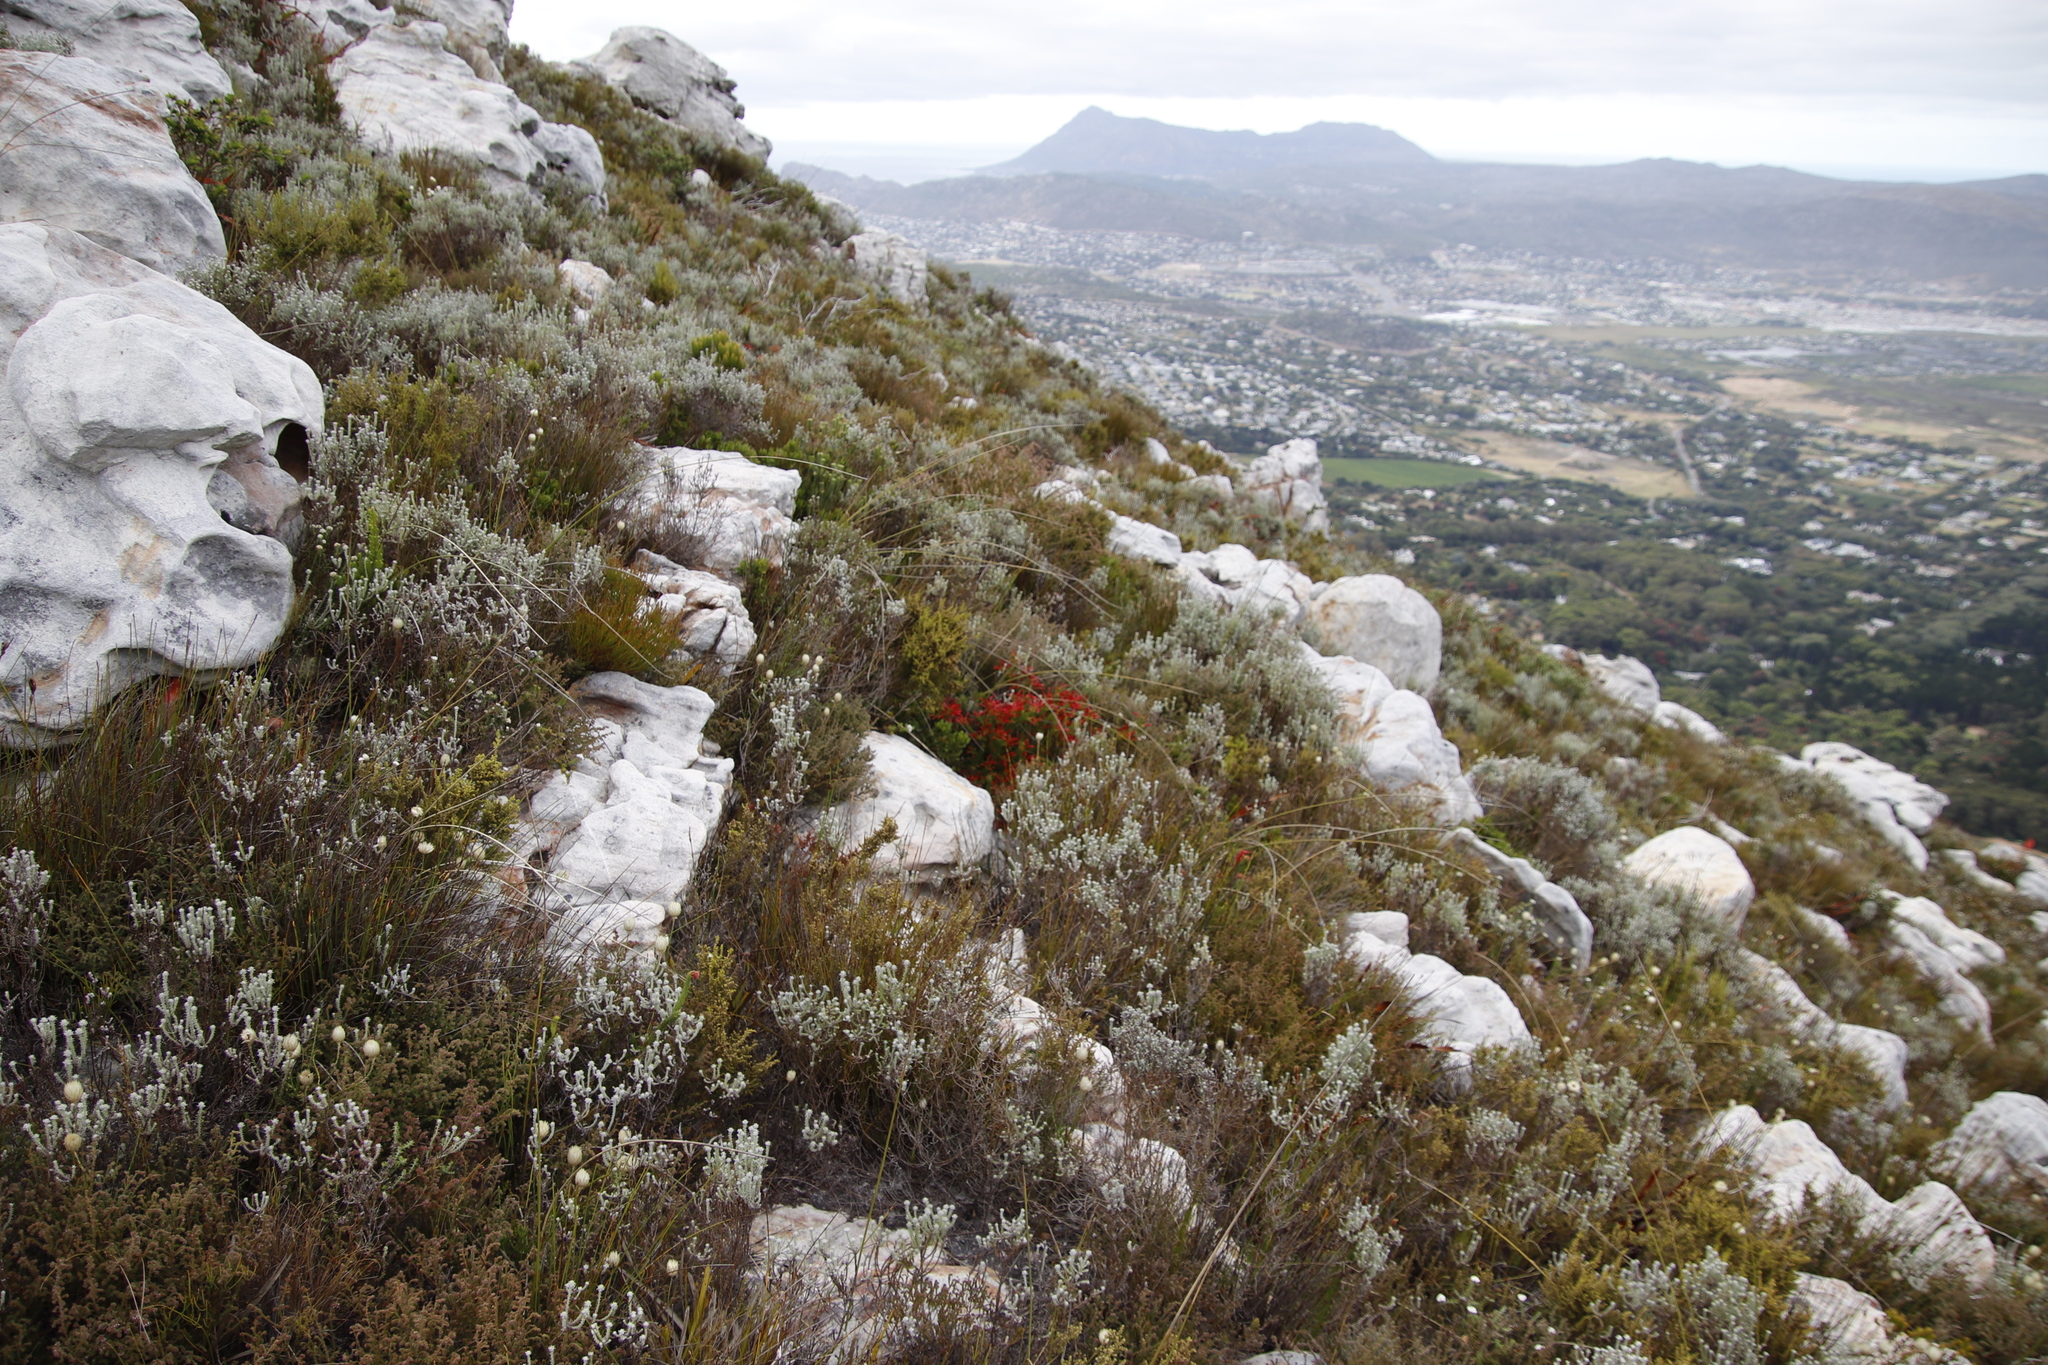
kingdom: Plantae
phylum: Tracheophyta
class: Magnoliopsida
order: Ericales
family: Ericaceae
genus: Erica
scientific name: Erica nevillei
